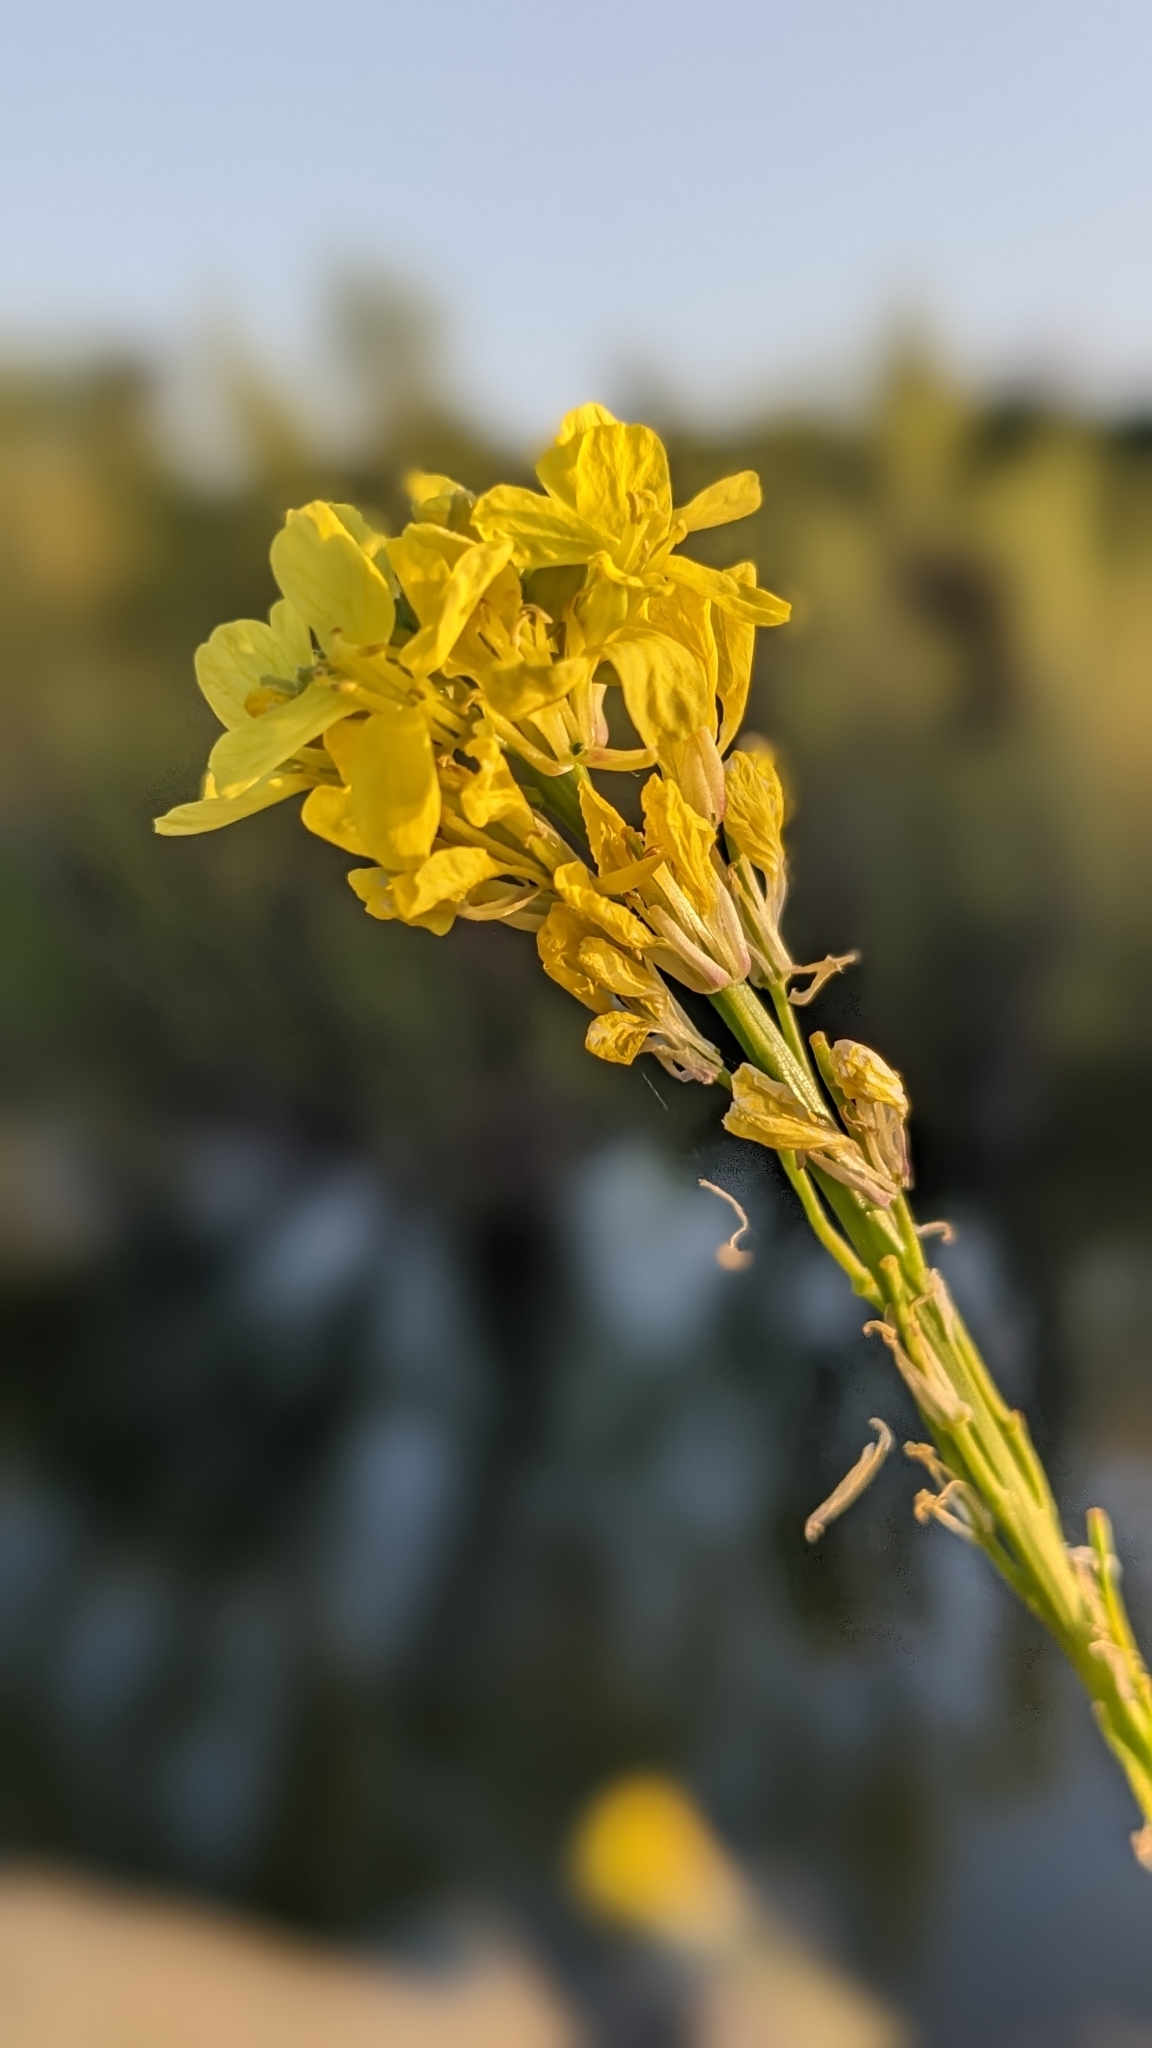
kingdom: Plantae
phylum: Tracheophyta
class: Magnoliopsida
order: Brassicales
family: Brassicaceae
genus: Hirschfeldia
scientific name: Hirschfeldia incana
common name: Hoary mustard
